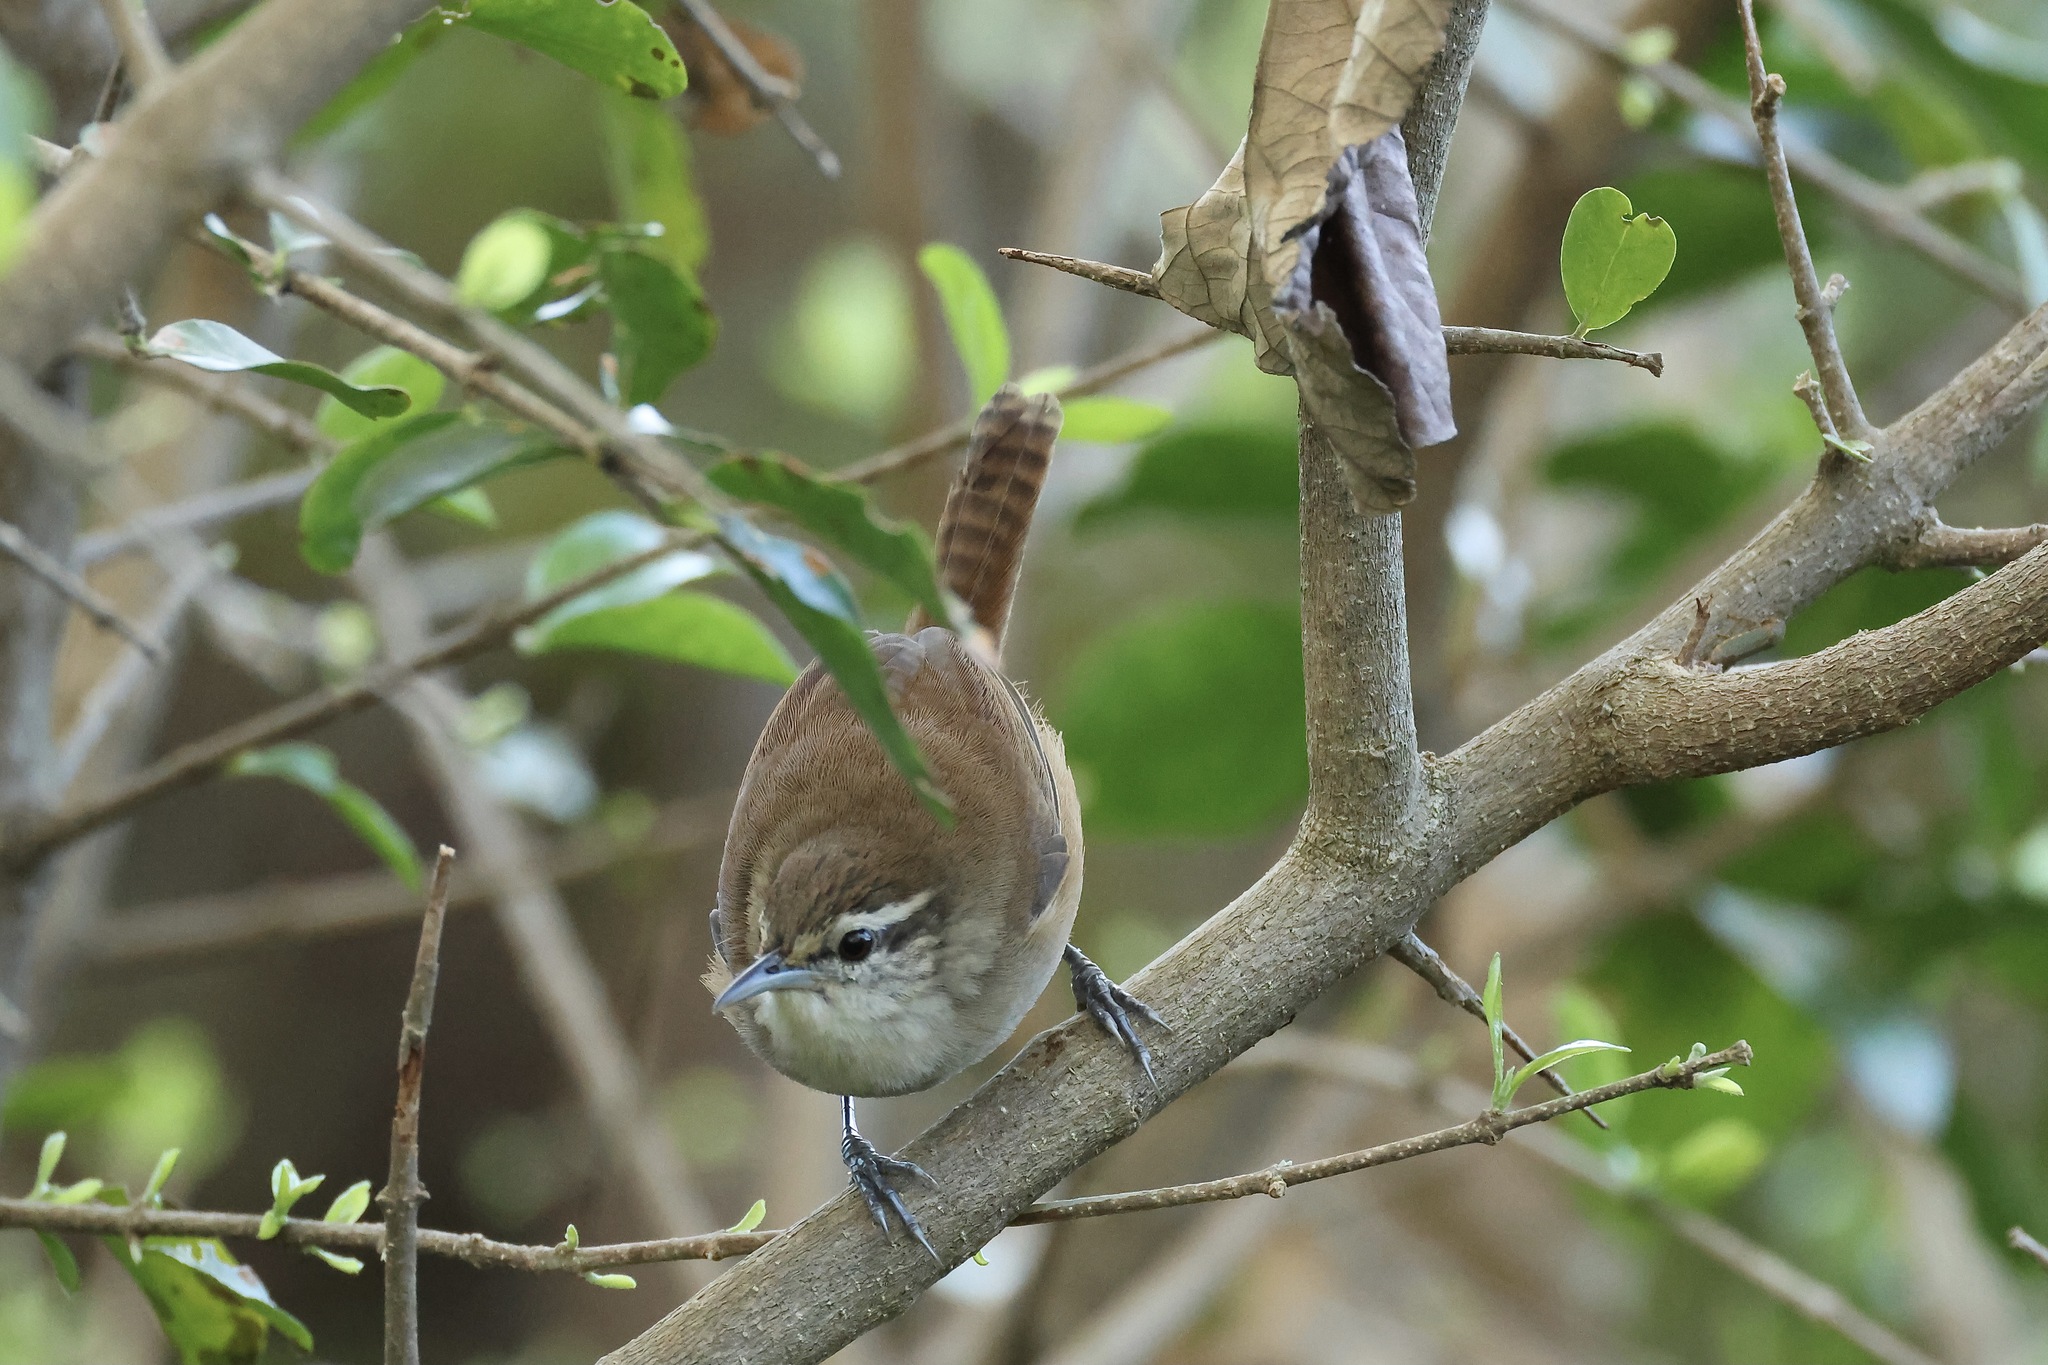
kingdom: Animalia
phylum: Chordata
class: Aves
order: Passeriformes
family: Troglodytidae
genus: Cantorchilus
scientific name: Cantorchilus modestus
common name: Cabanis's wren
